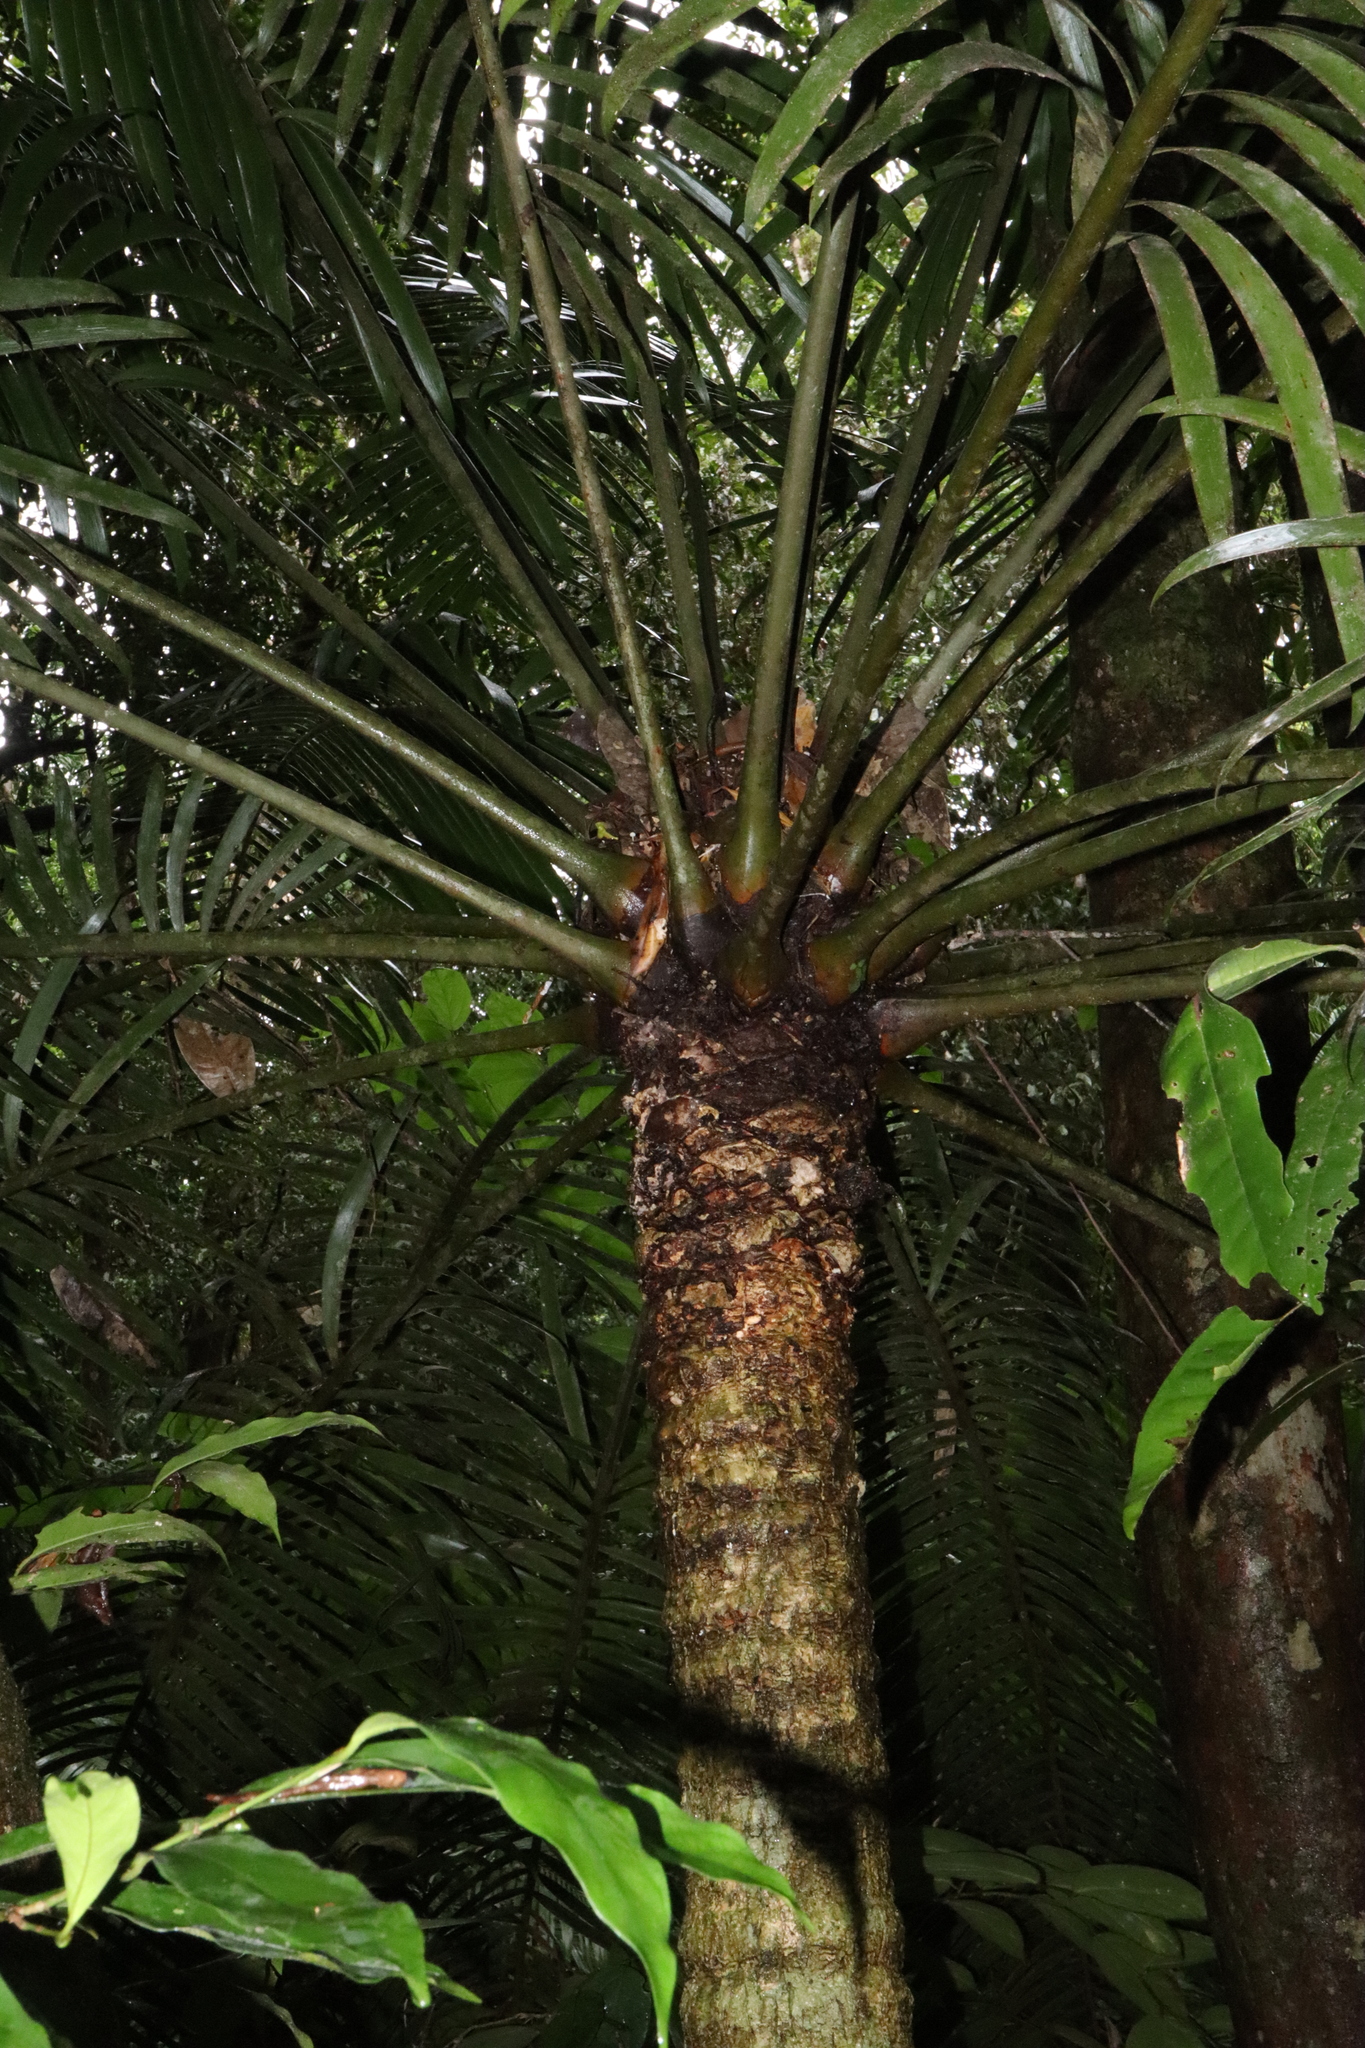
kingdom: Plantae
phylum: Tracheophyta
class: Cycadopsida
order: Cycadales
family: Zamiaceae
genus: Lepidozamia
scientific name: Lepidozamia hopei
